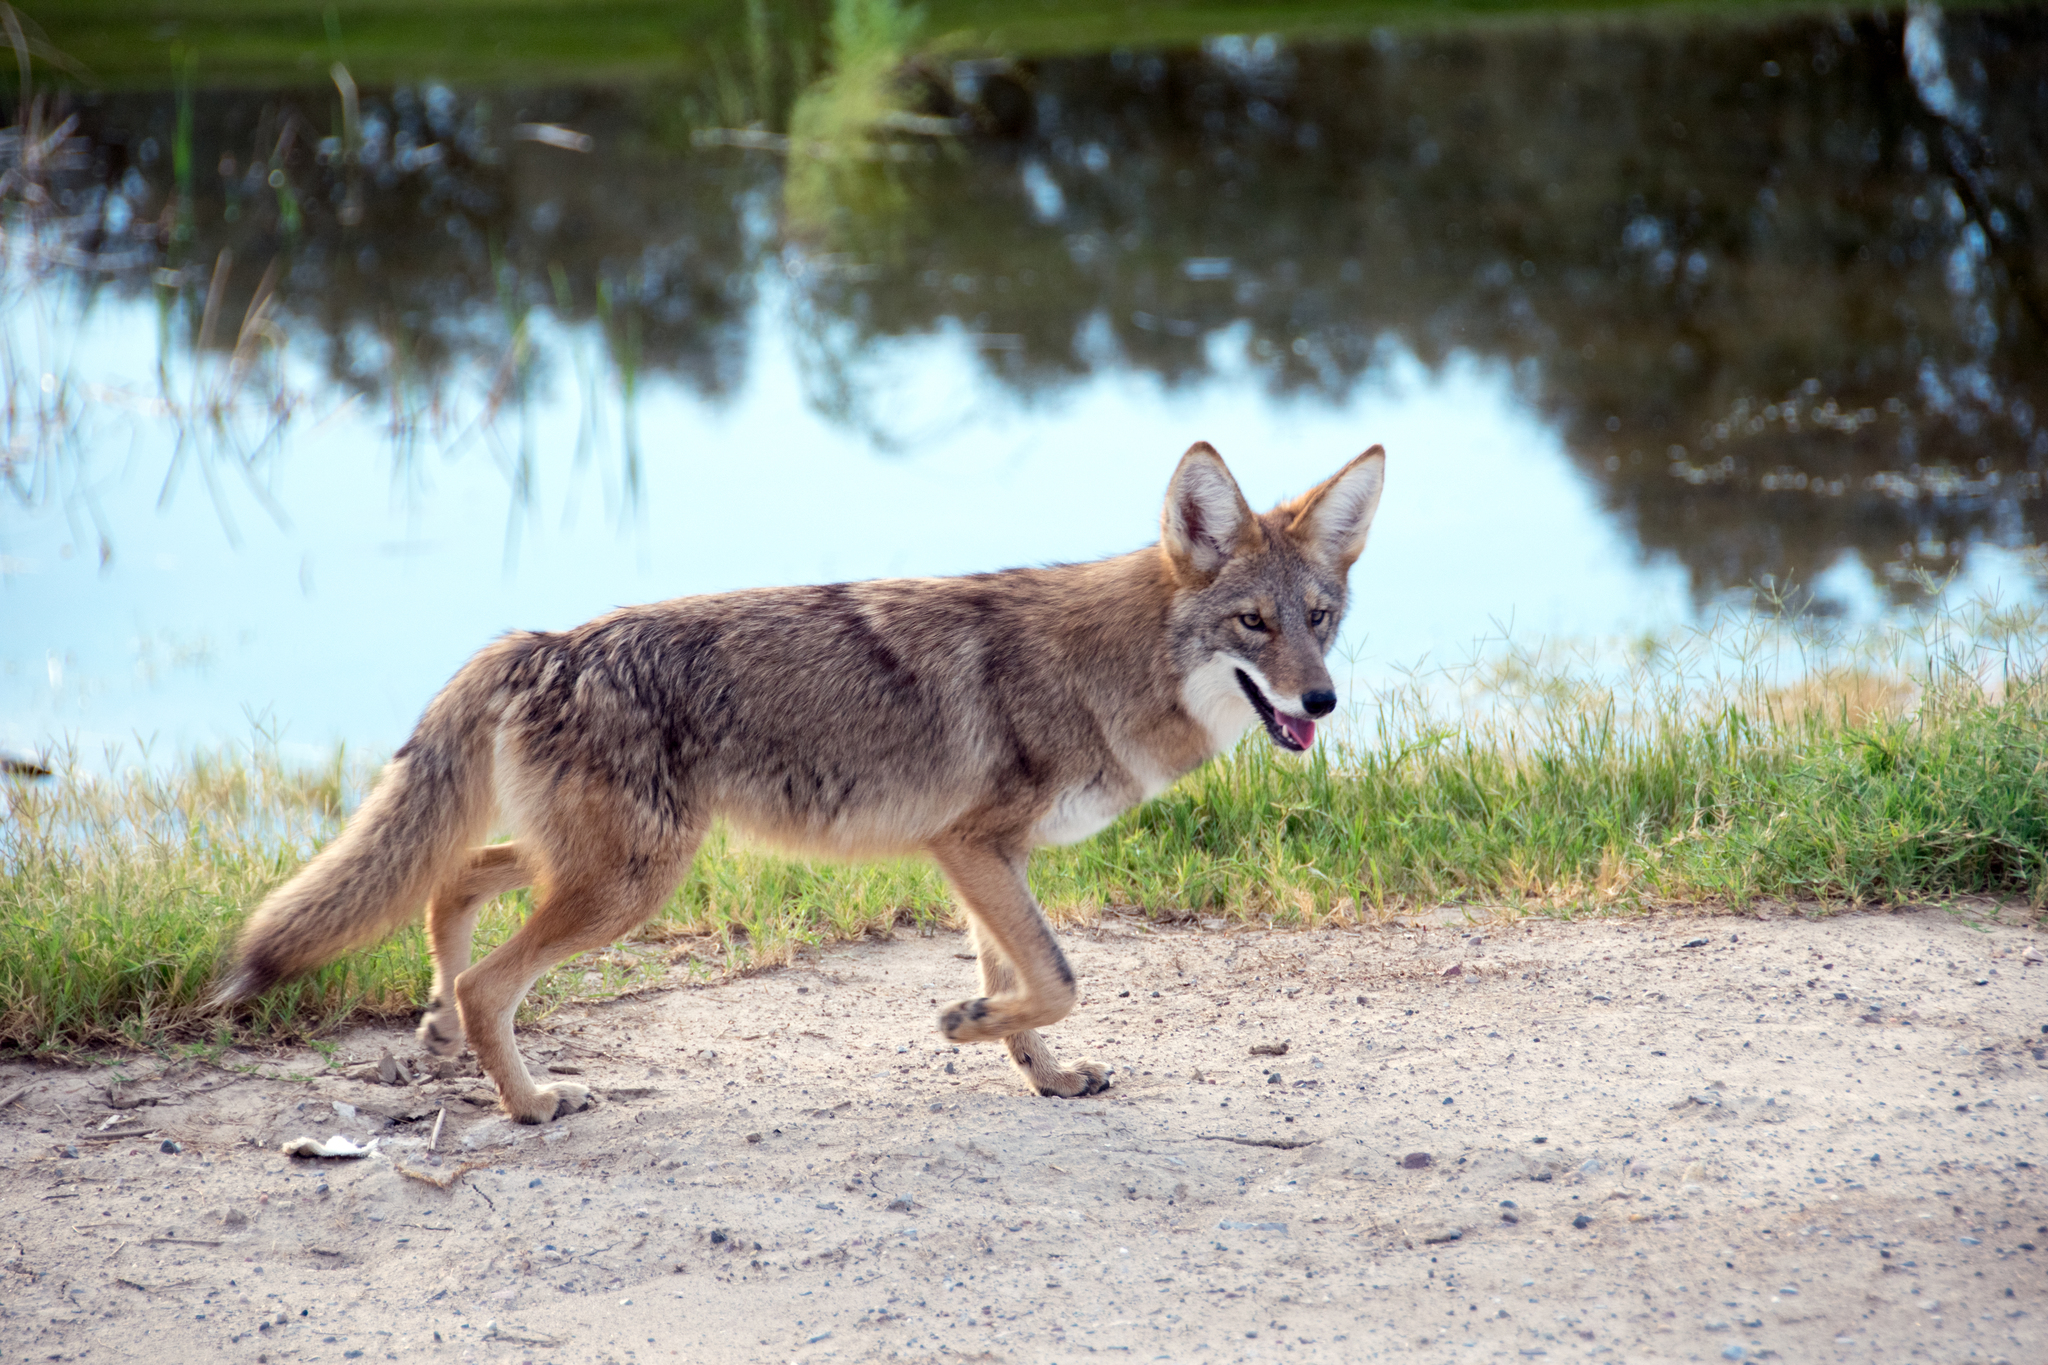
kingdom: Animalia
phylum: Chordata
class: Mammalia
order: Carnivora
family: Canidae
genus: Canis
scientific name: Canis latrans
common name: Coyote
